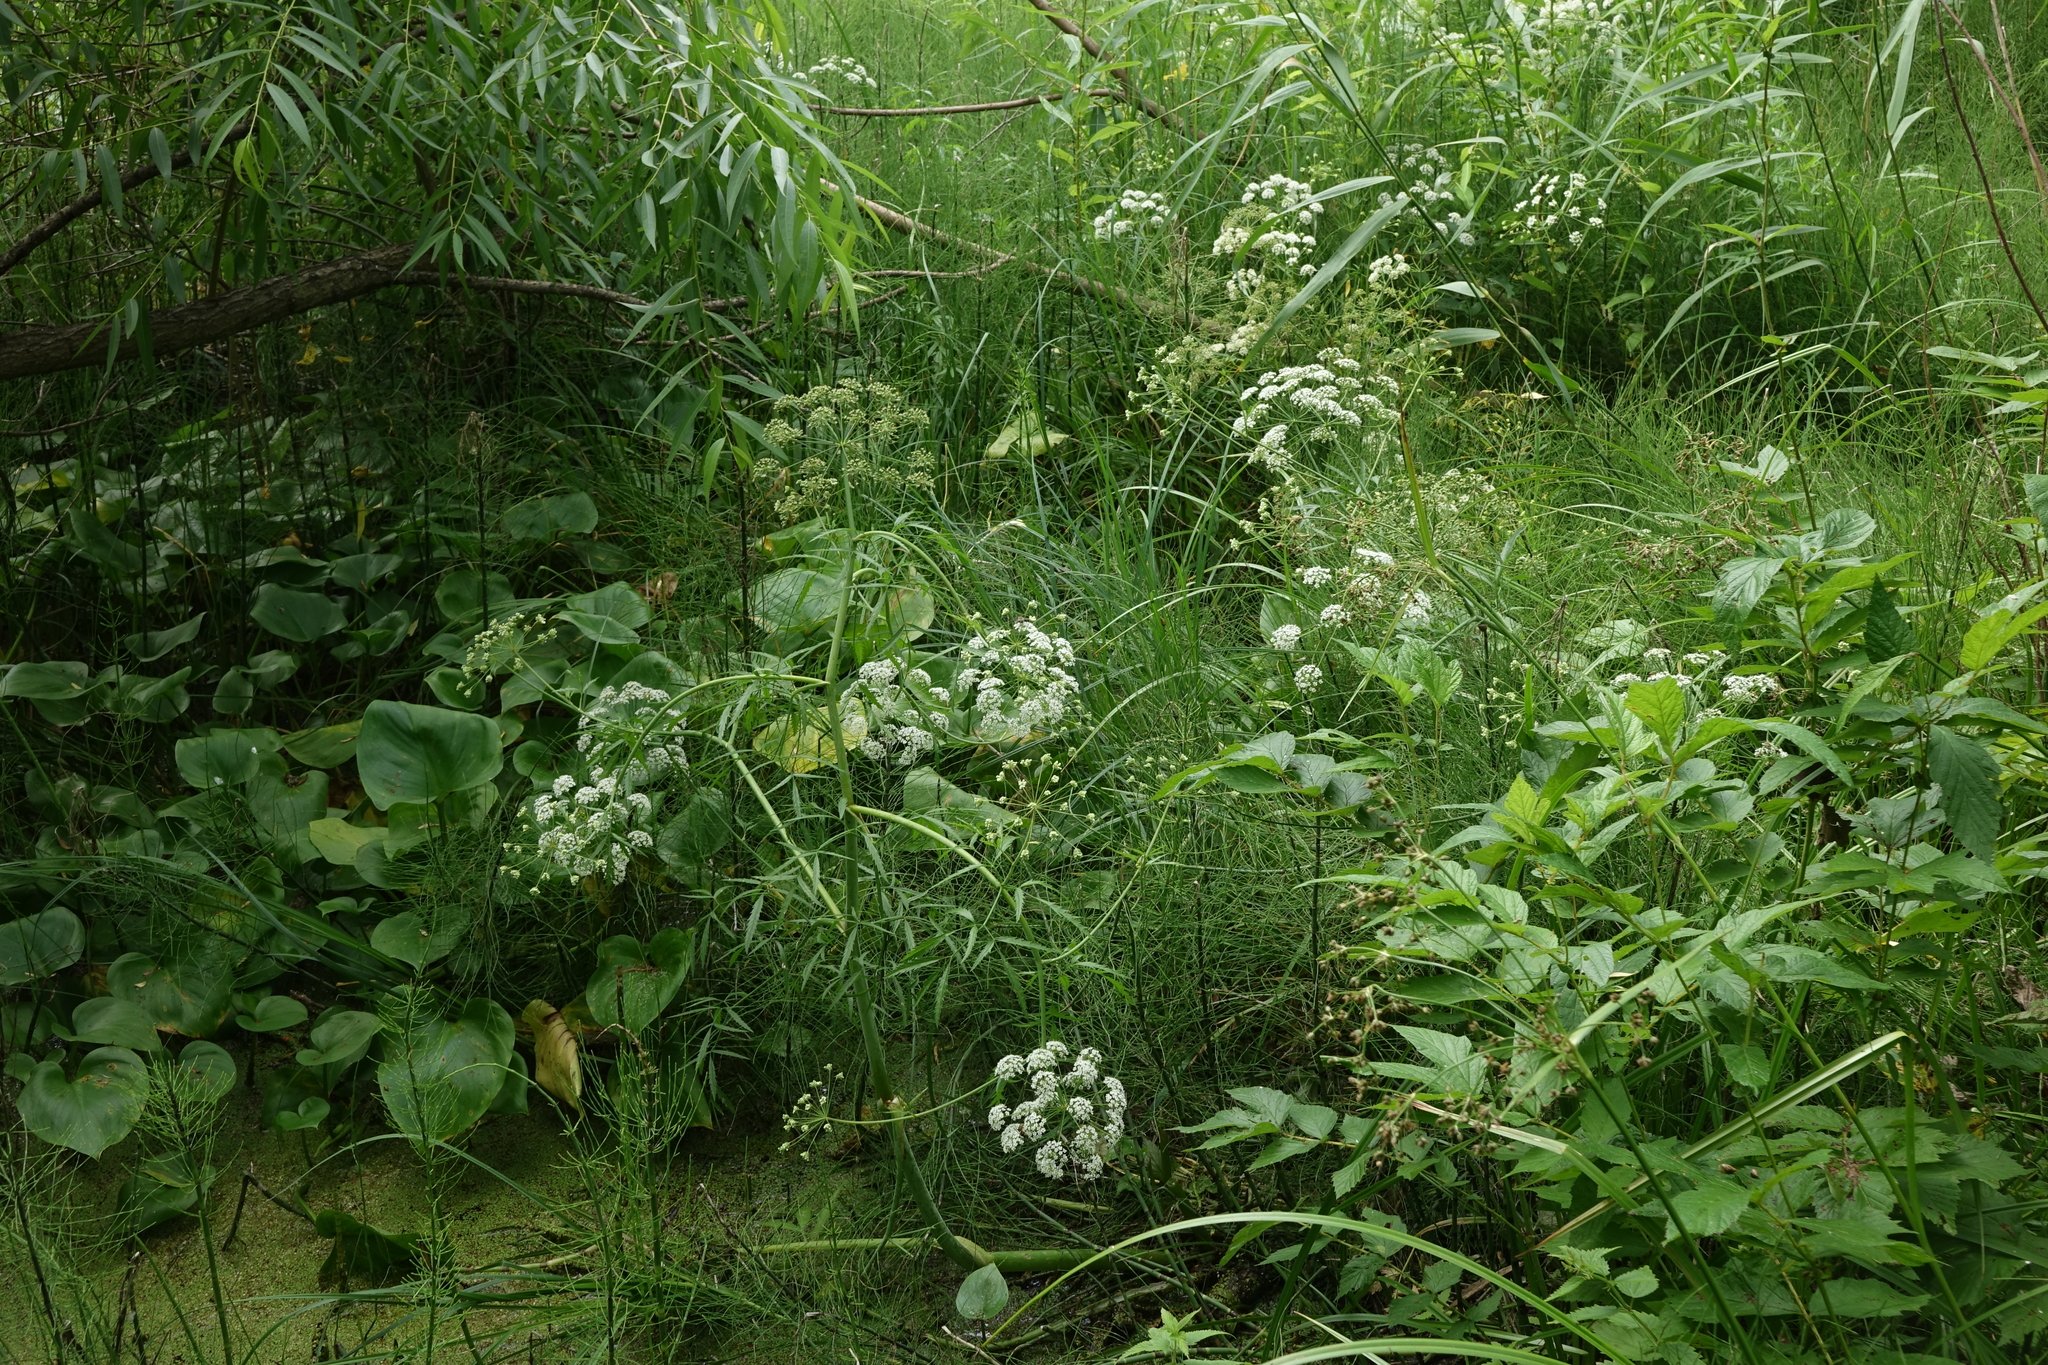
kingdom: Plantae
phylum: Tracheophyta
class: Magnoliopsida
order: Apiales
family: Apiaceae
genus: Cicuta
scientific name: Cicuta virosa
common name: Cowbane
